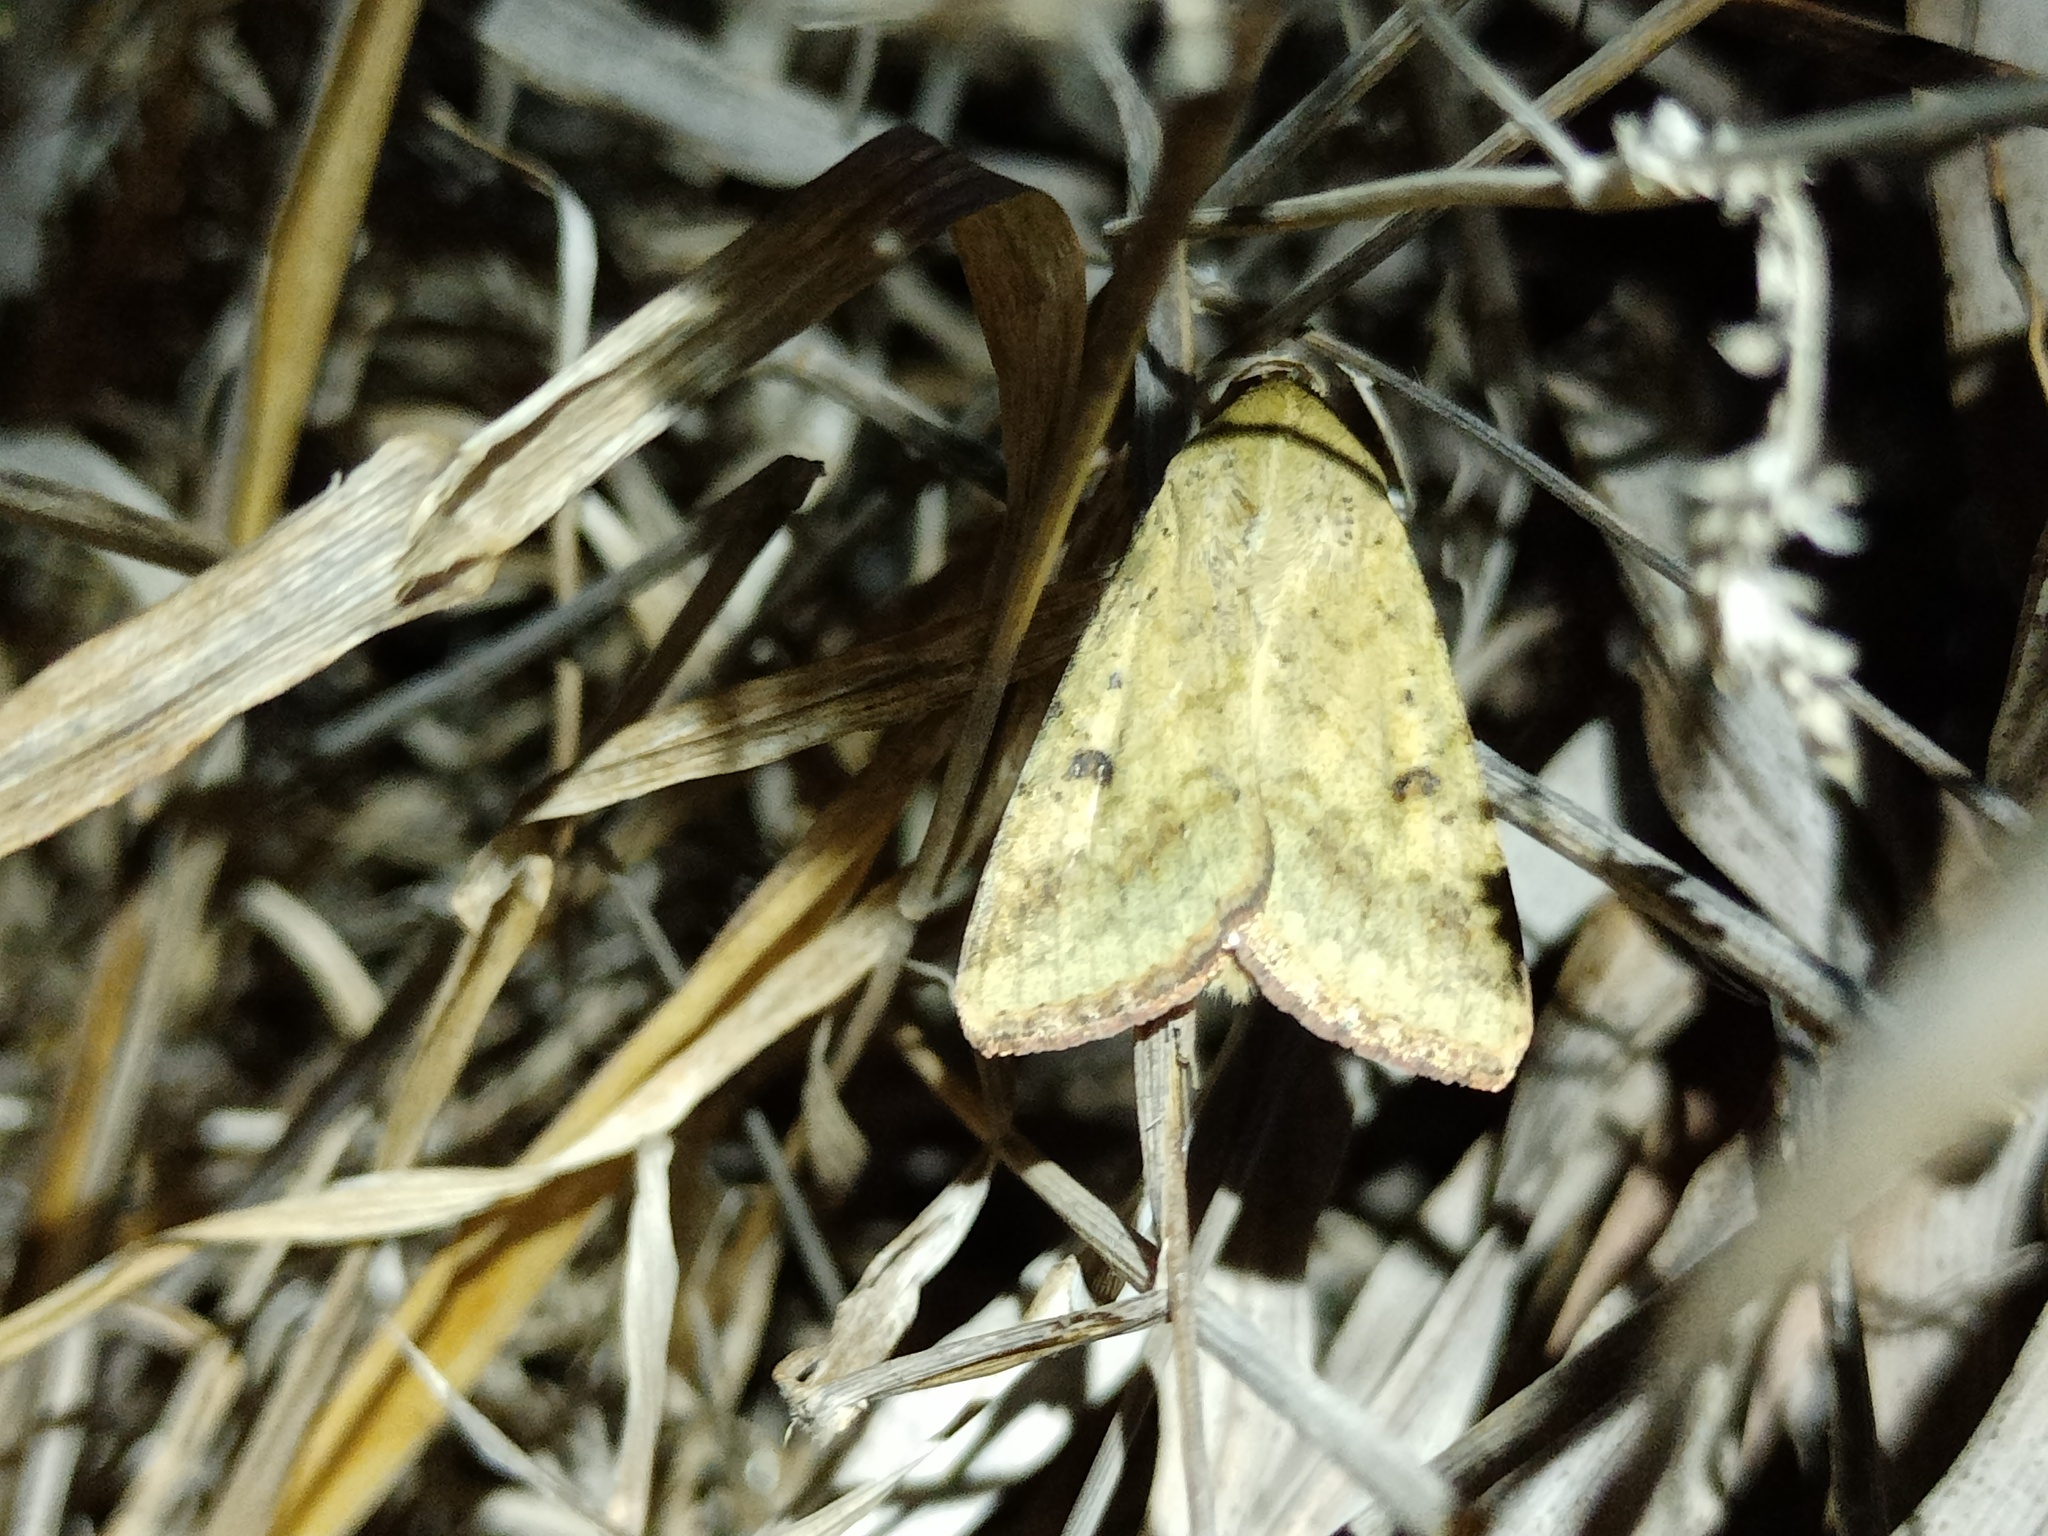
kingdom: Animalia
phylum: Arthropoda
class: Insecta
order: Lepidoptera
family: Noctuidae
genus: Helicoverpa
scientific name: Helicoverpa armigera
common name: Cotton bollworm
